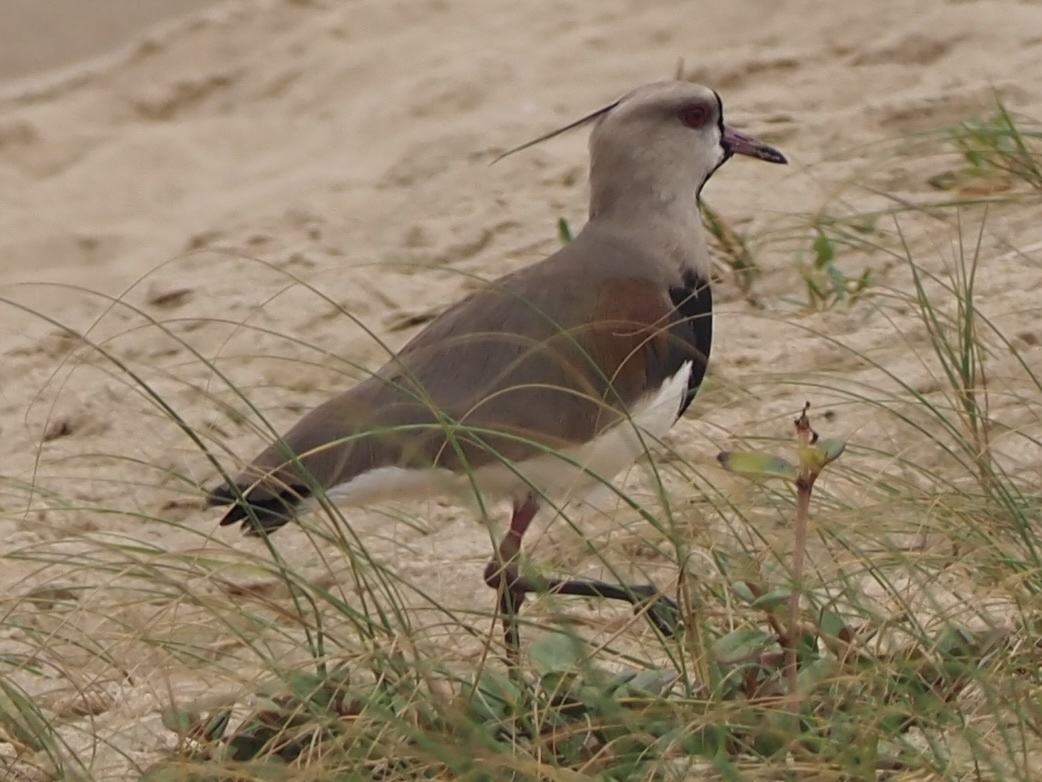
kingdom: Animalia
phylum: Chordata
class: Aves
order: Charadriiformes
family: Charadriidae
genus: Vanellus
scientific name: Vanellus chilensis
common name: Southern lapwing
